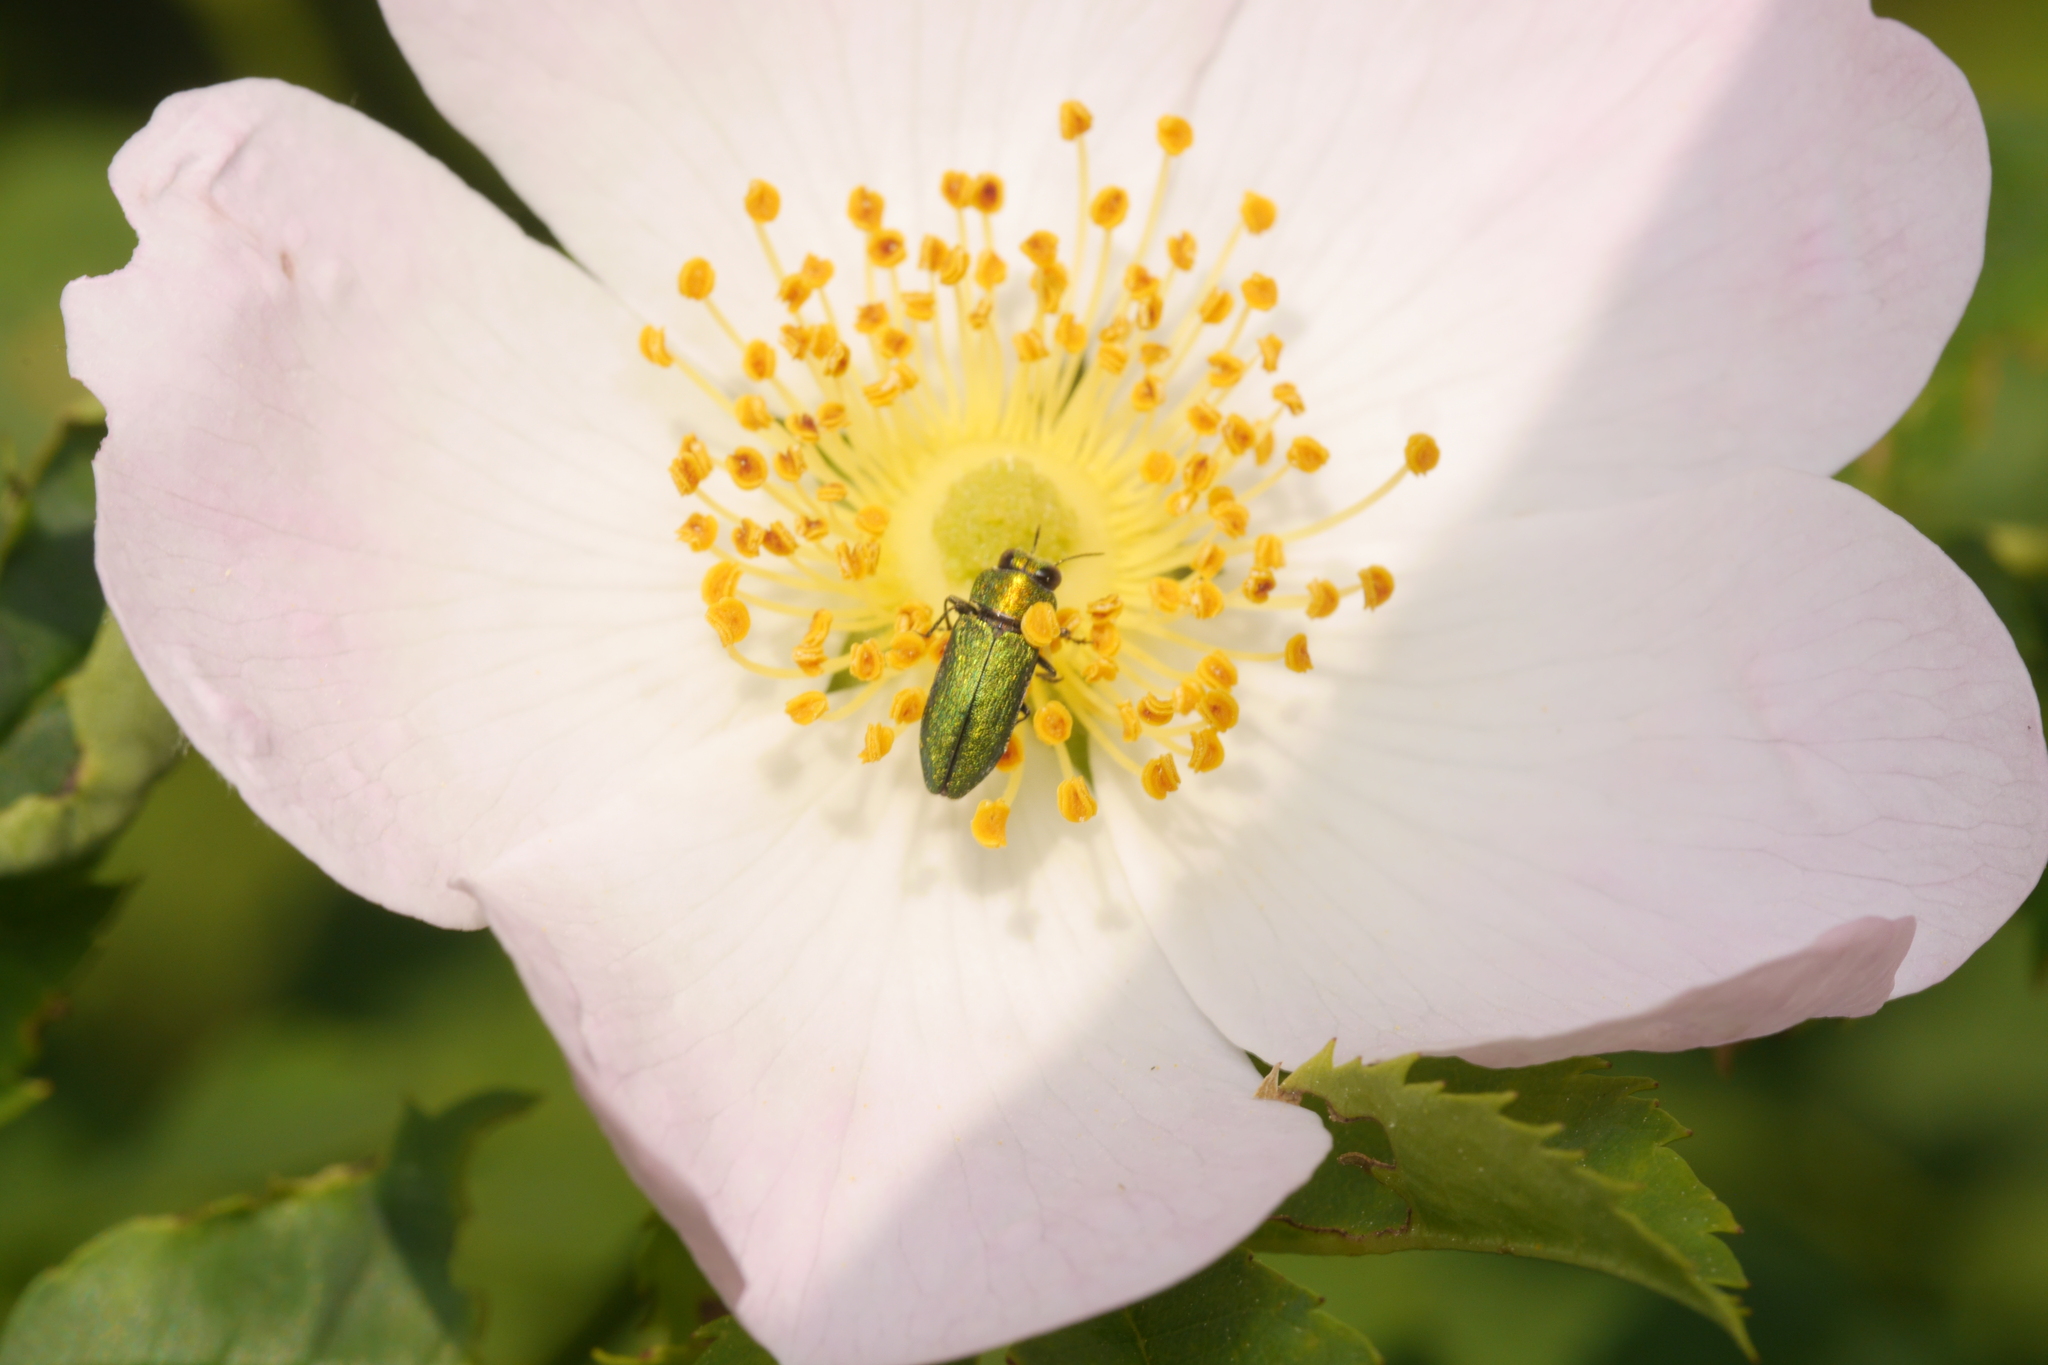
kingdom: Animalia
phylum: Arthropoda
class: Insecta
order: Coleoptera
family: Buprestidae
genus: Anthaxia
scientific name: Anthaxia nitidula
